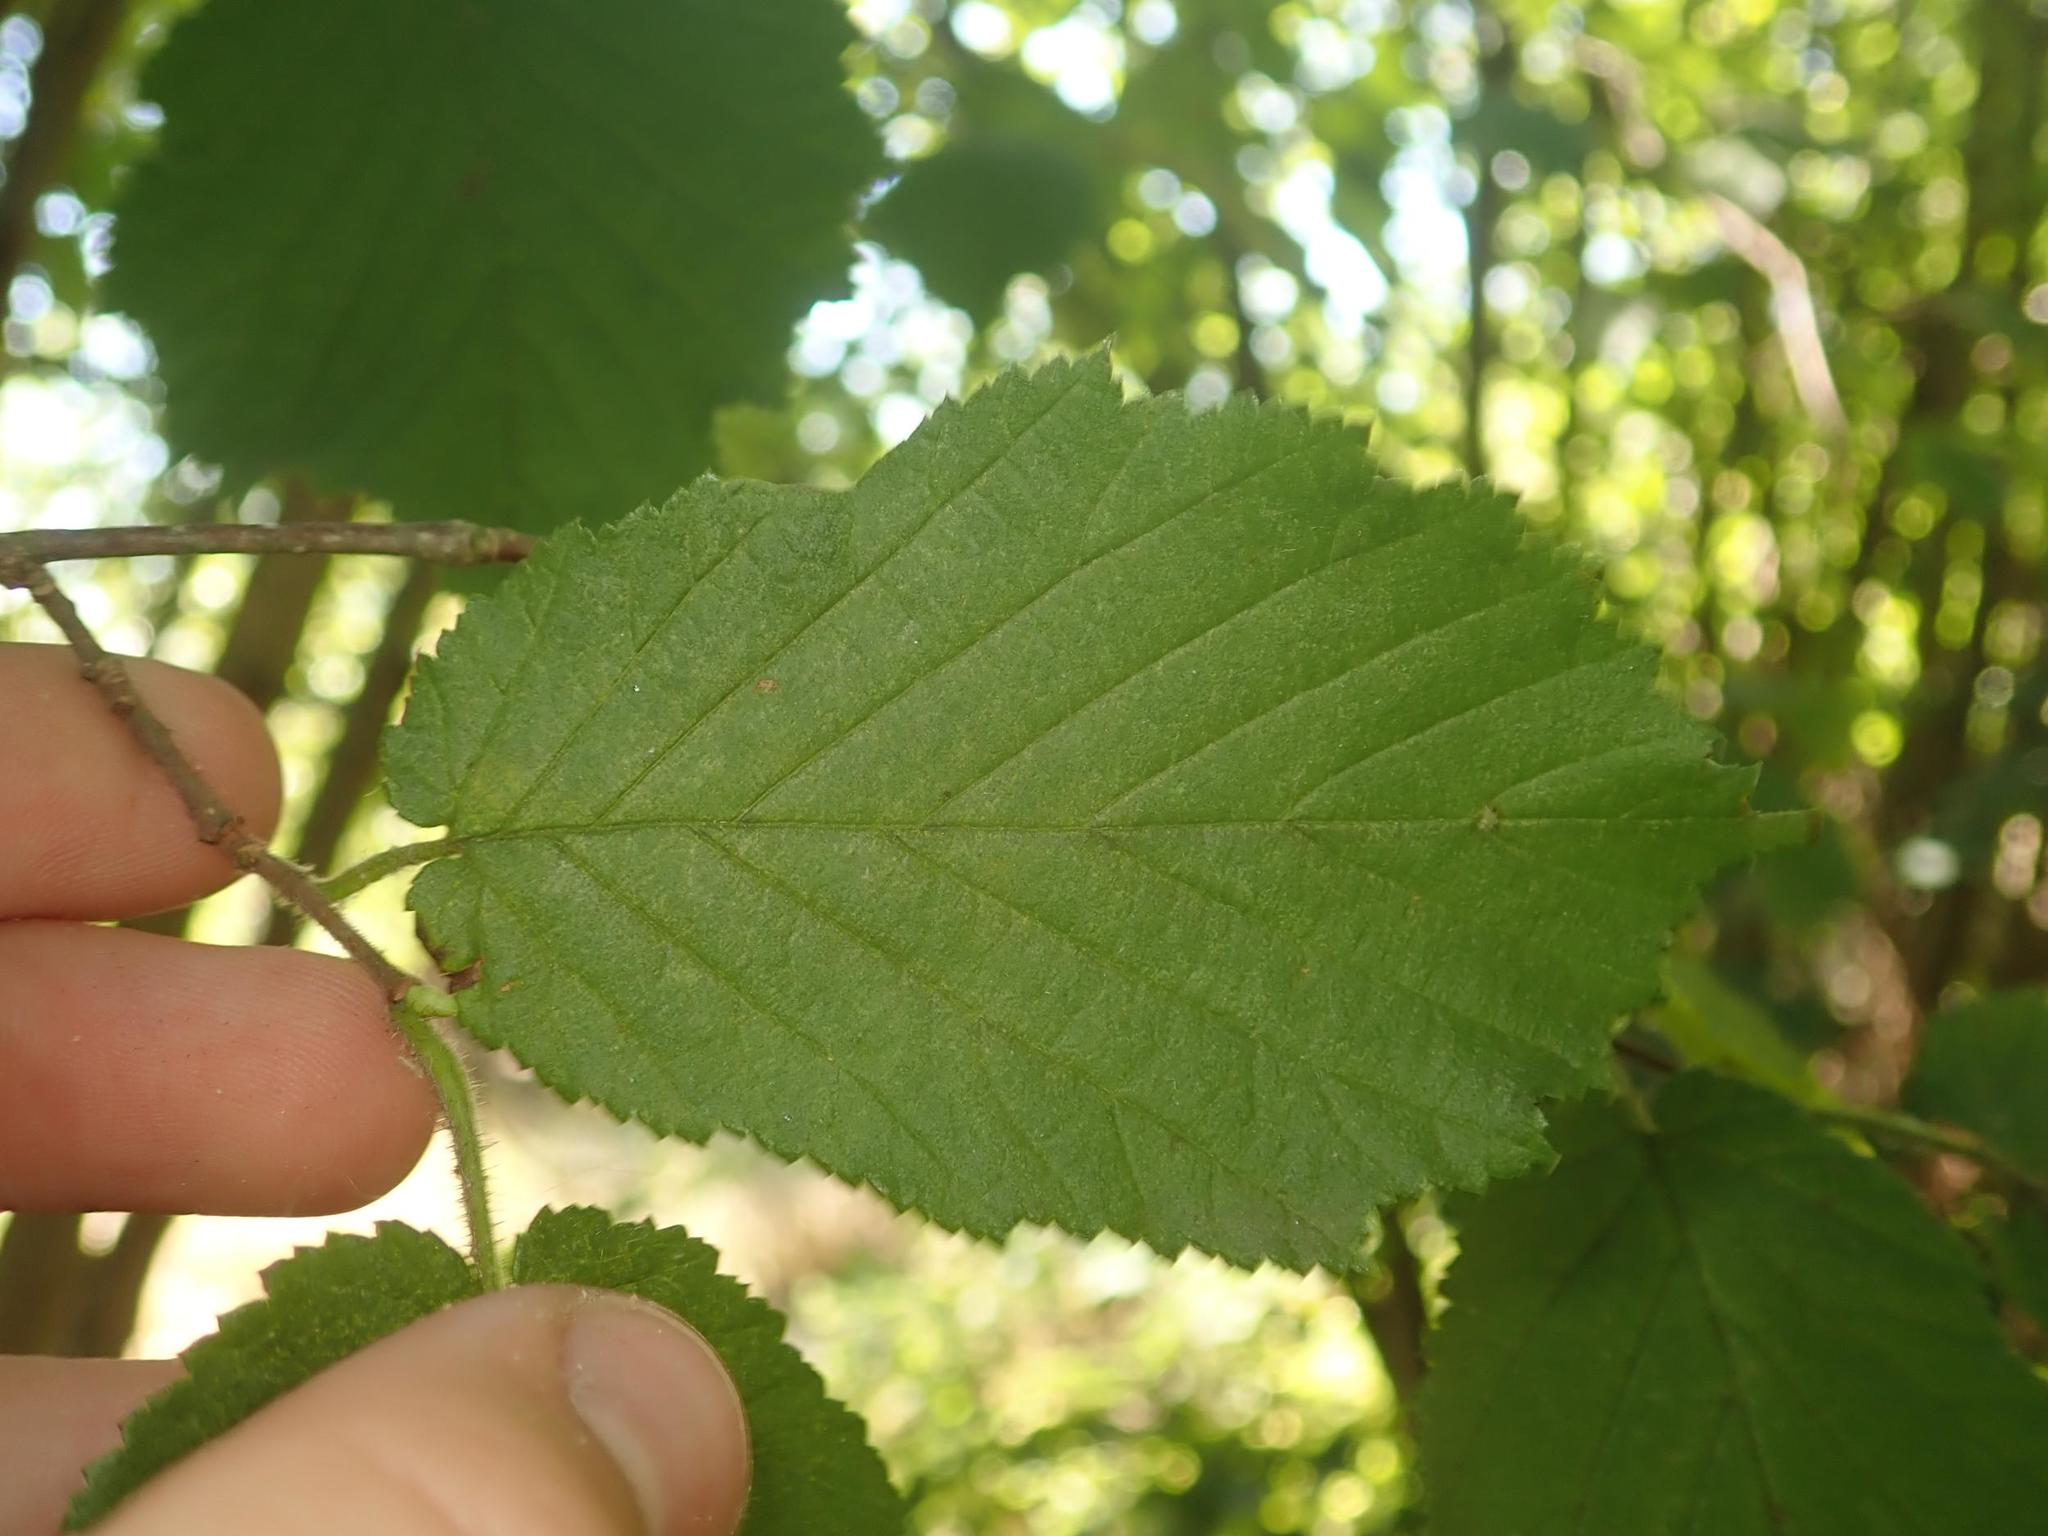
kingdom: Plantae
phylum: Tracheophyta
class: Magnoliopsida
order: Fagales
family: Betulaceae
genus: Corylus
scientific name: Corylus avellana
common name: European hazel
